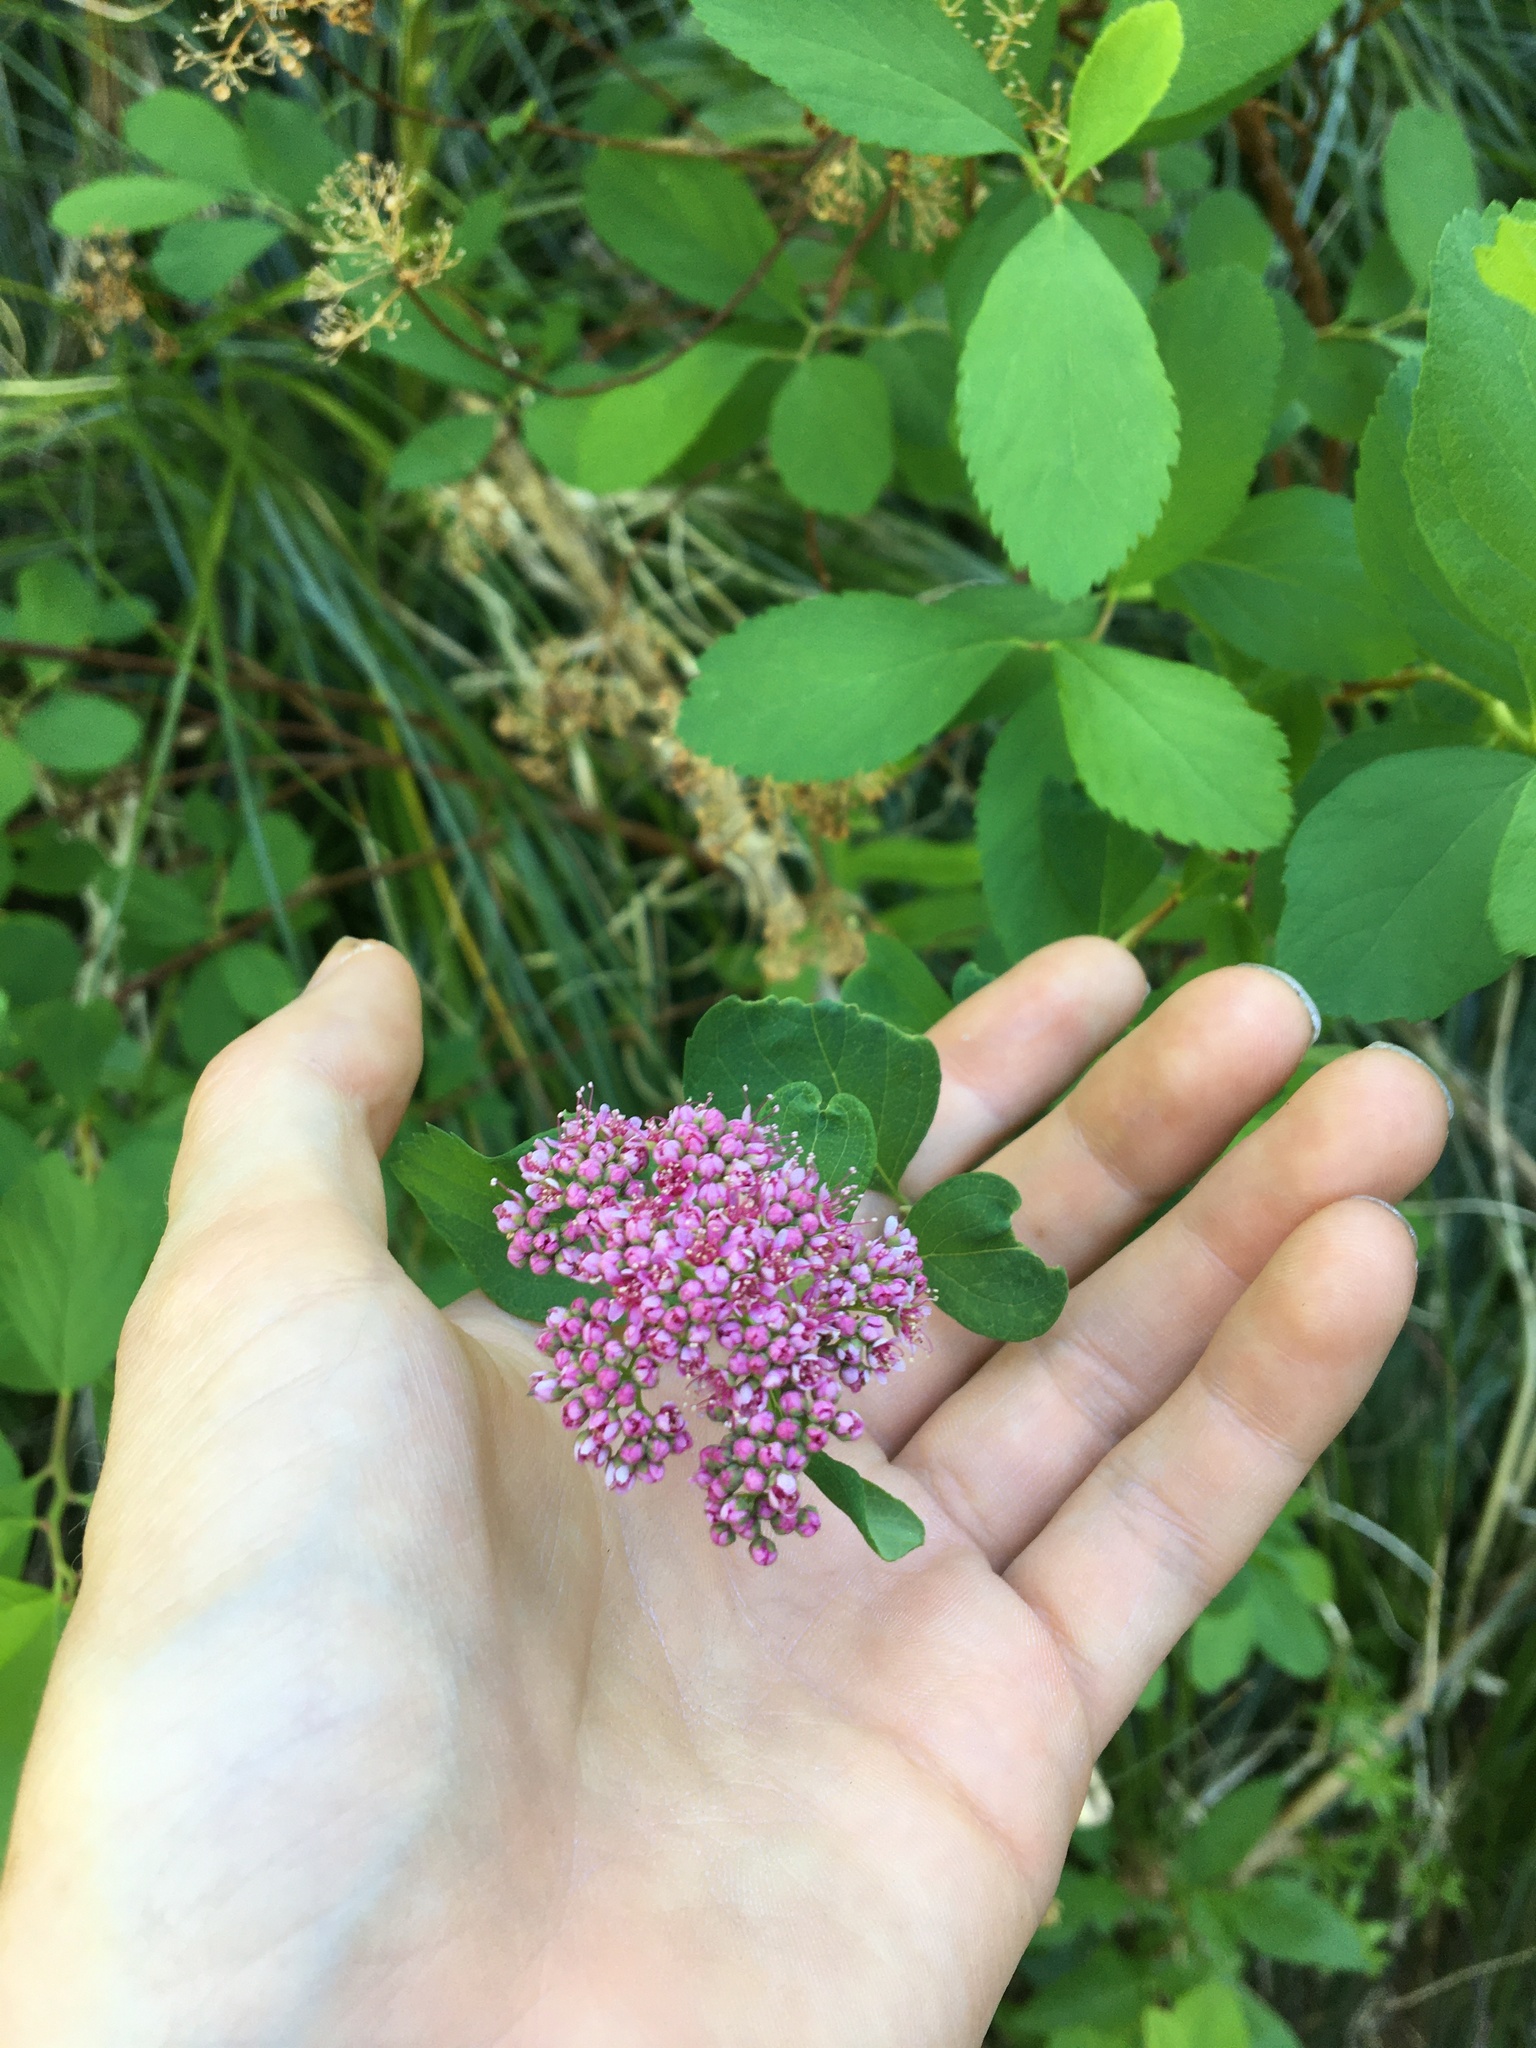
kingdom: Plantae
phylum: Tracheophyta
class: Magnoliopsida
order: Rosales
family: Rosaceae
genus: Spiraea
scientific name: Spiraea splendens
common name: Subalpine meadowsweet
